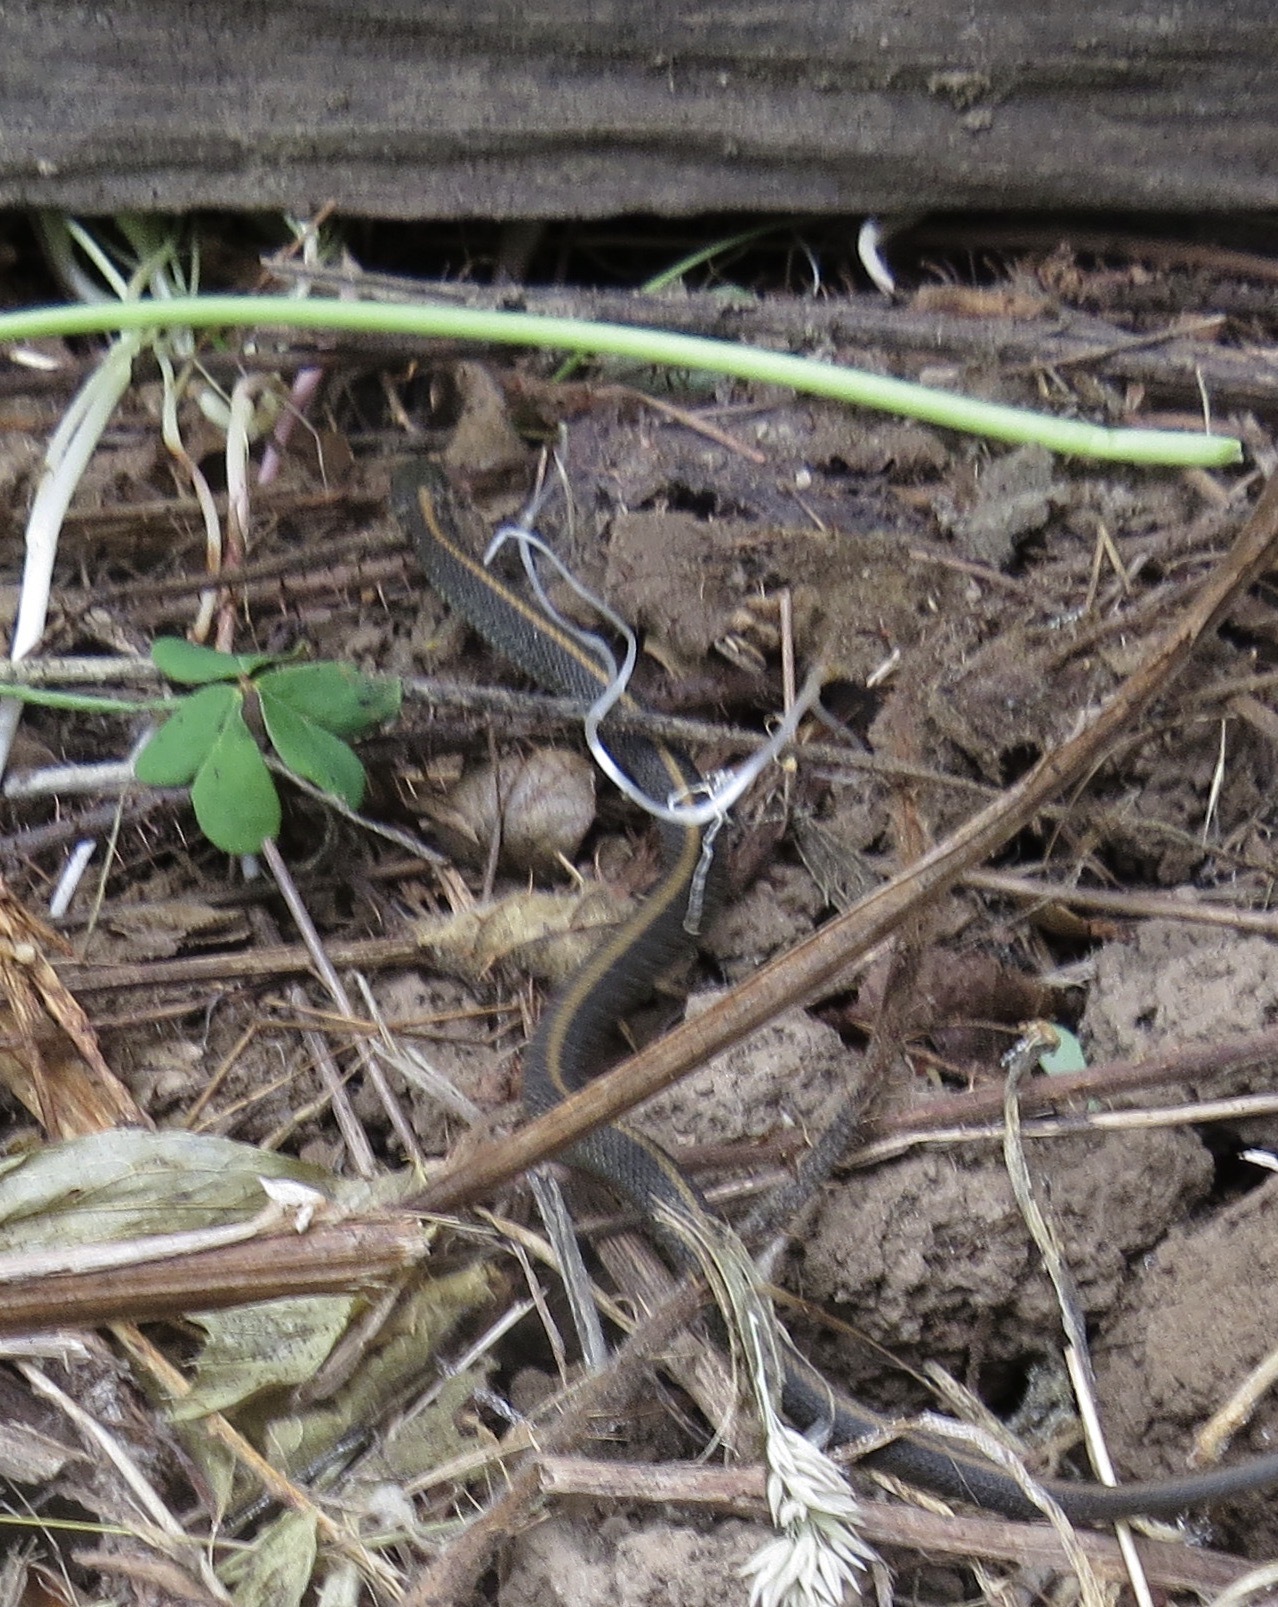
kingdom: Animalia
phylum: Chordata
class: Squamata
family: Colubridae
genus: Thamnophis
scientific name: Thamnophis atratus
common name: Pacific coast aquatic garter snake
